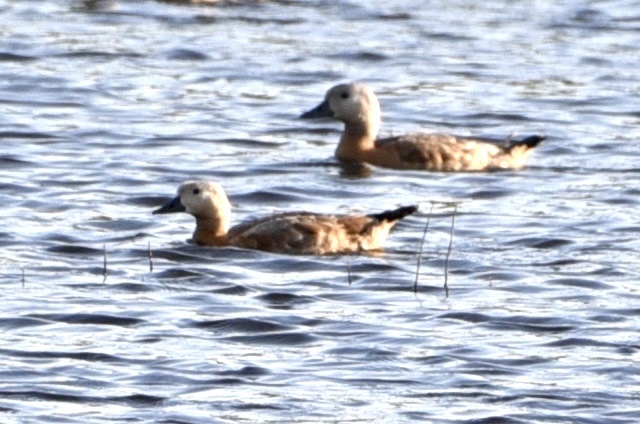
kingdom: Animalia
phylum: Chordata
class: Aves
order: Anseriformes
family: Anatidae
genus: Tadorna
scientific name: Tadorna ferruginea
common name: Ruddy shelduck
